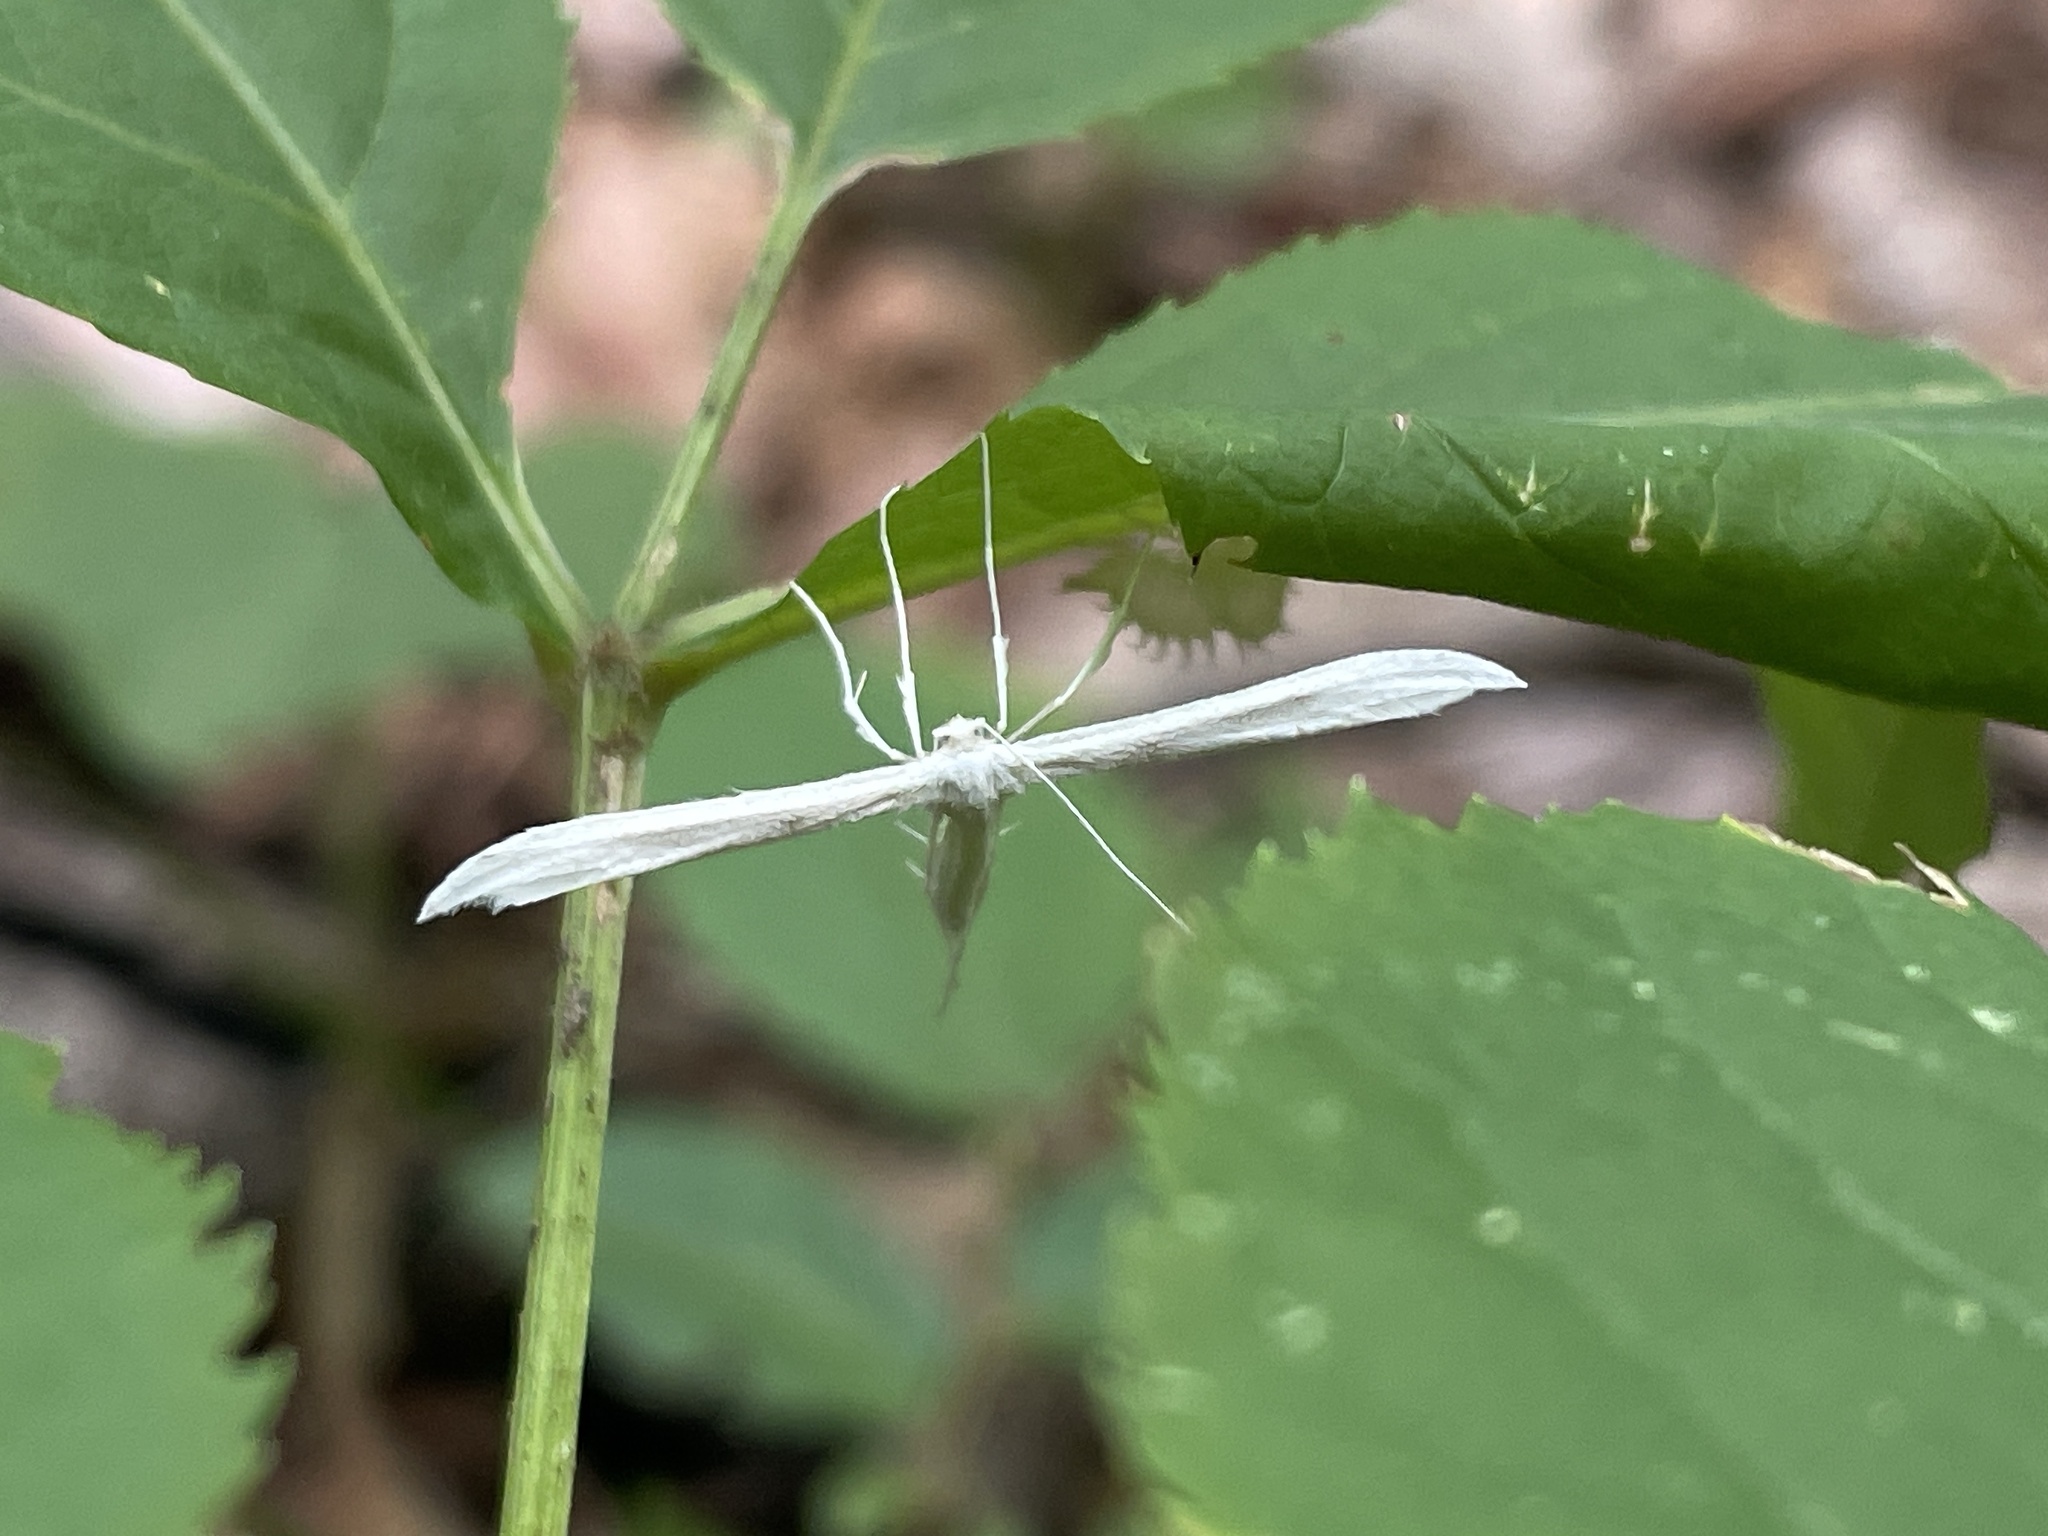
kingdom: Animalia
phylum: Arthropoda
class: Insecta
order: Lepidoptera
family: Pterophoridae
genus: Hellinsia
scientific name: Hellinsia homodactylus
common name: Plain plume moth
